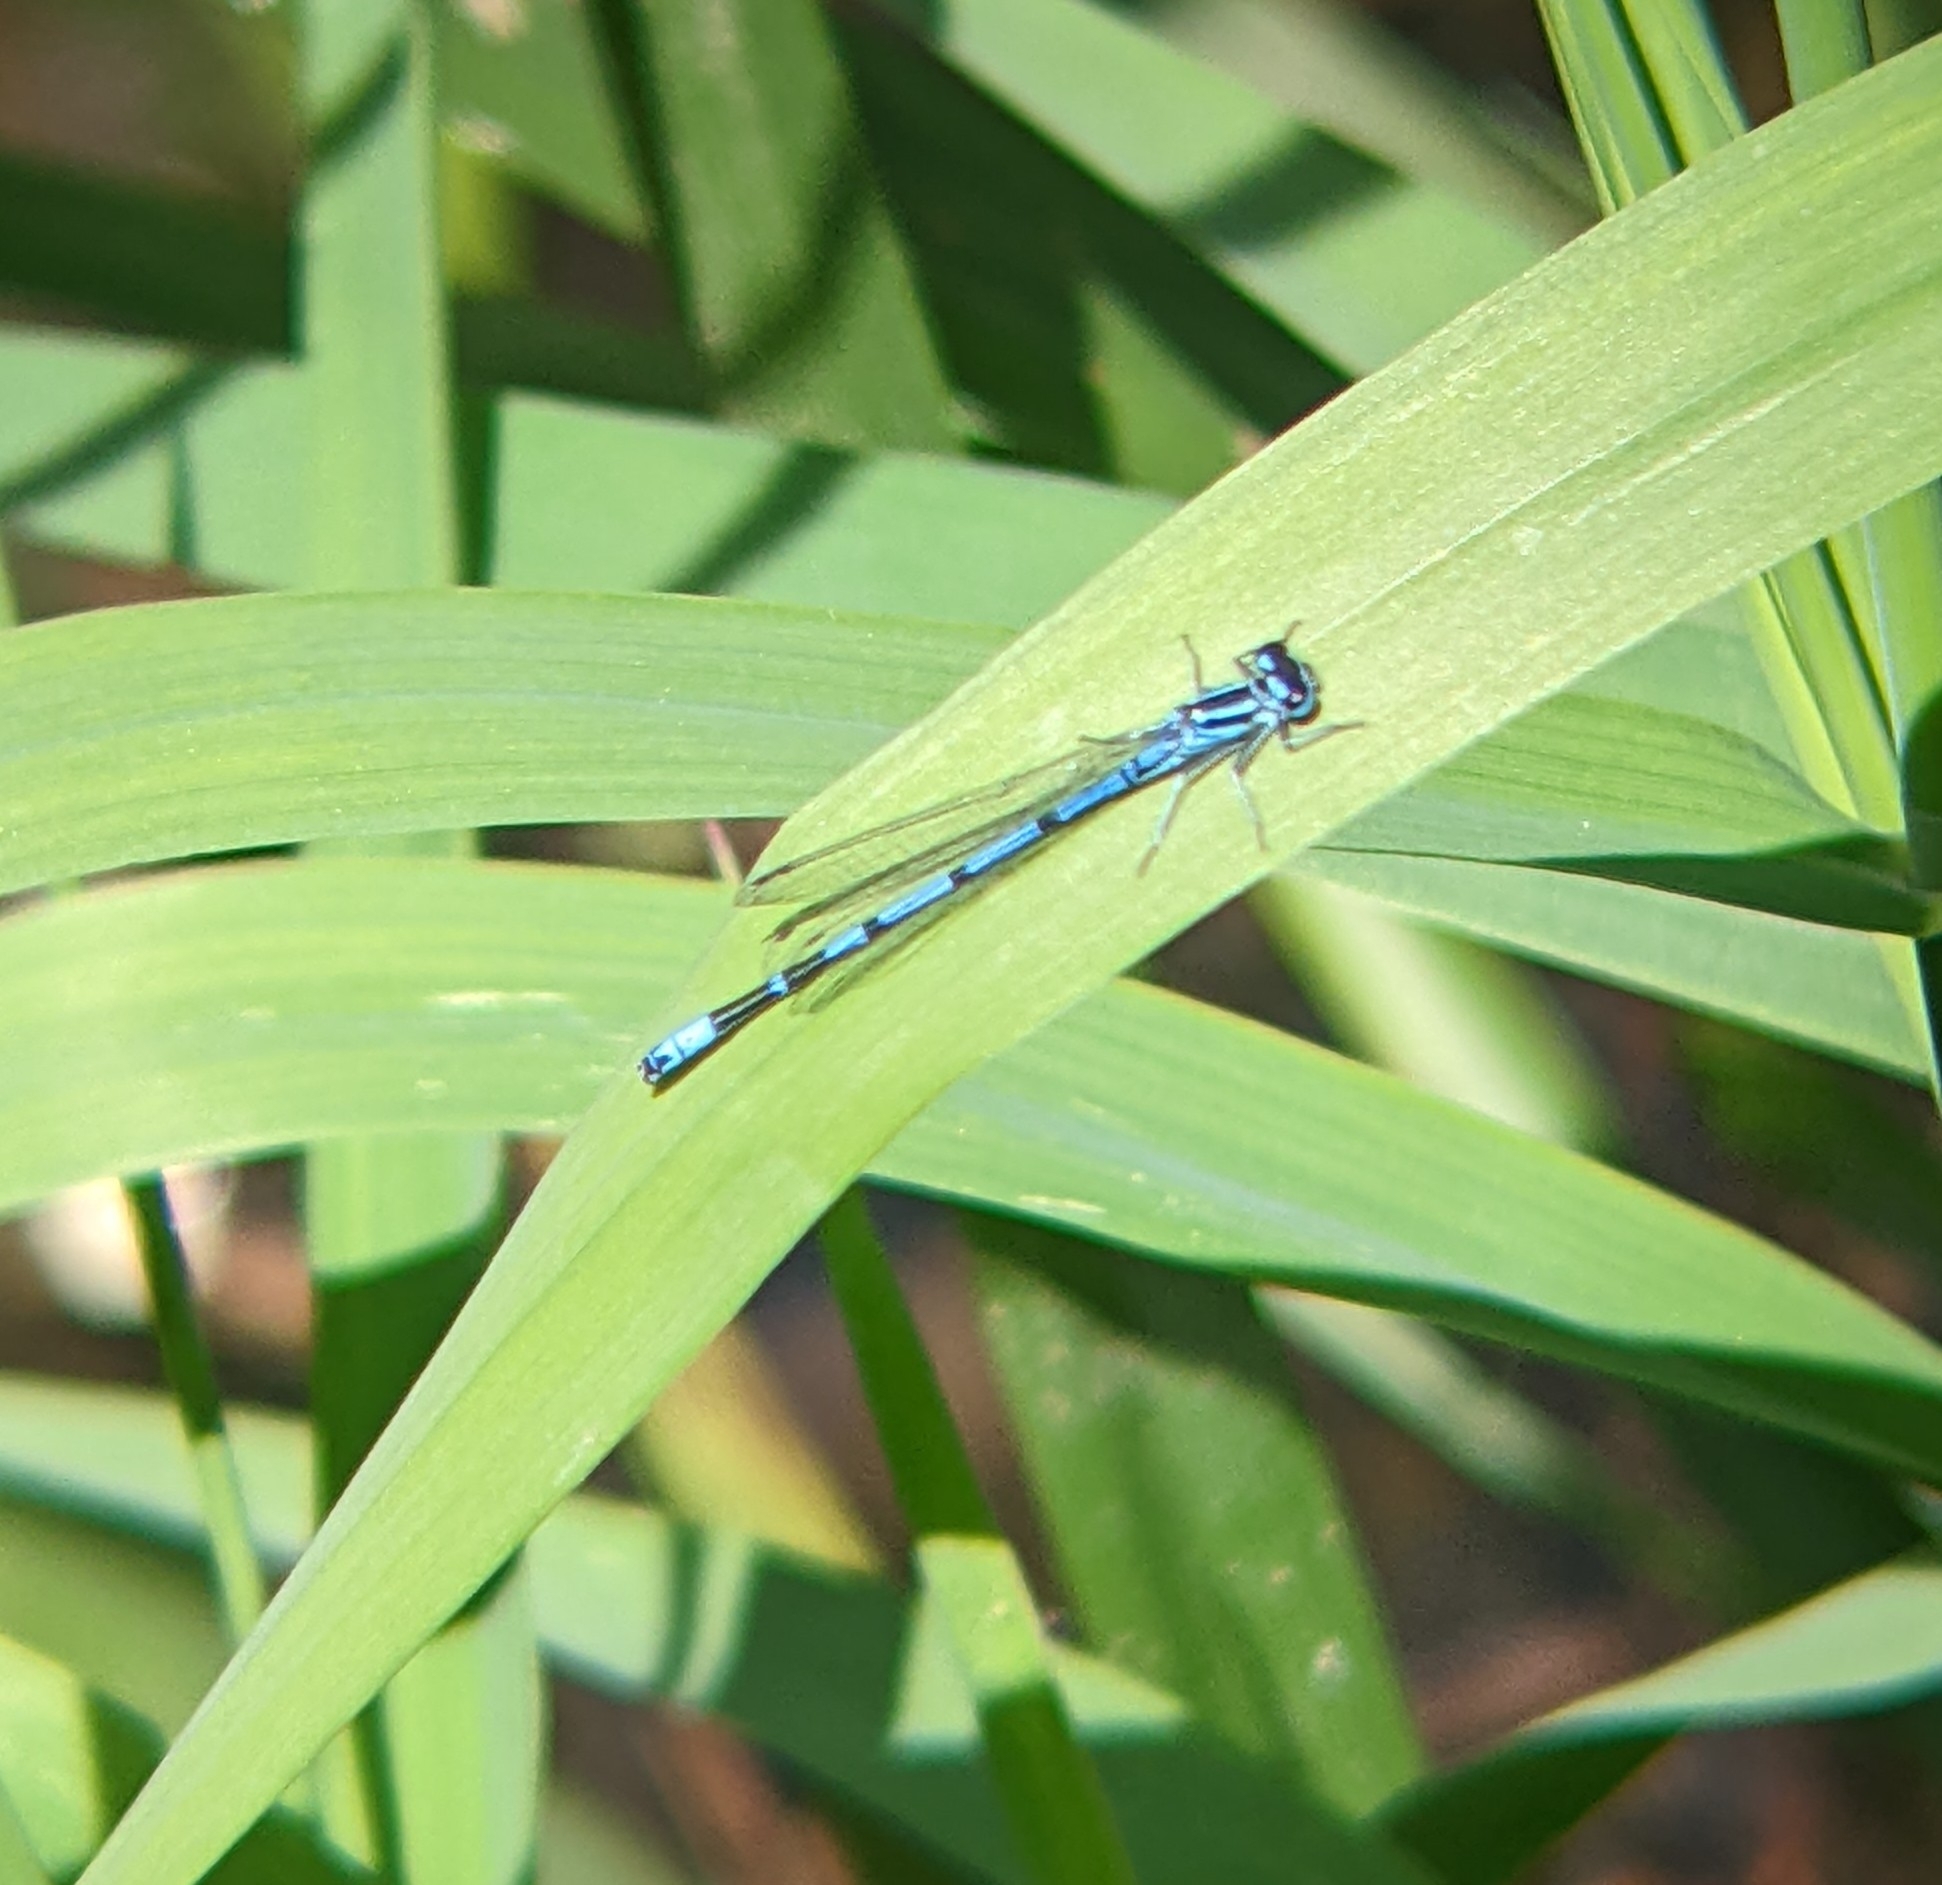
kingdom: Animalia
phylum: Arthropoda
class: Insecta
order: Odonata
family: Coenagrionidae
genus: Coenagrion
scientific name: Coenagrion puella
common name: Azure damselfly
